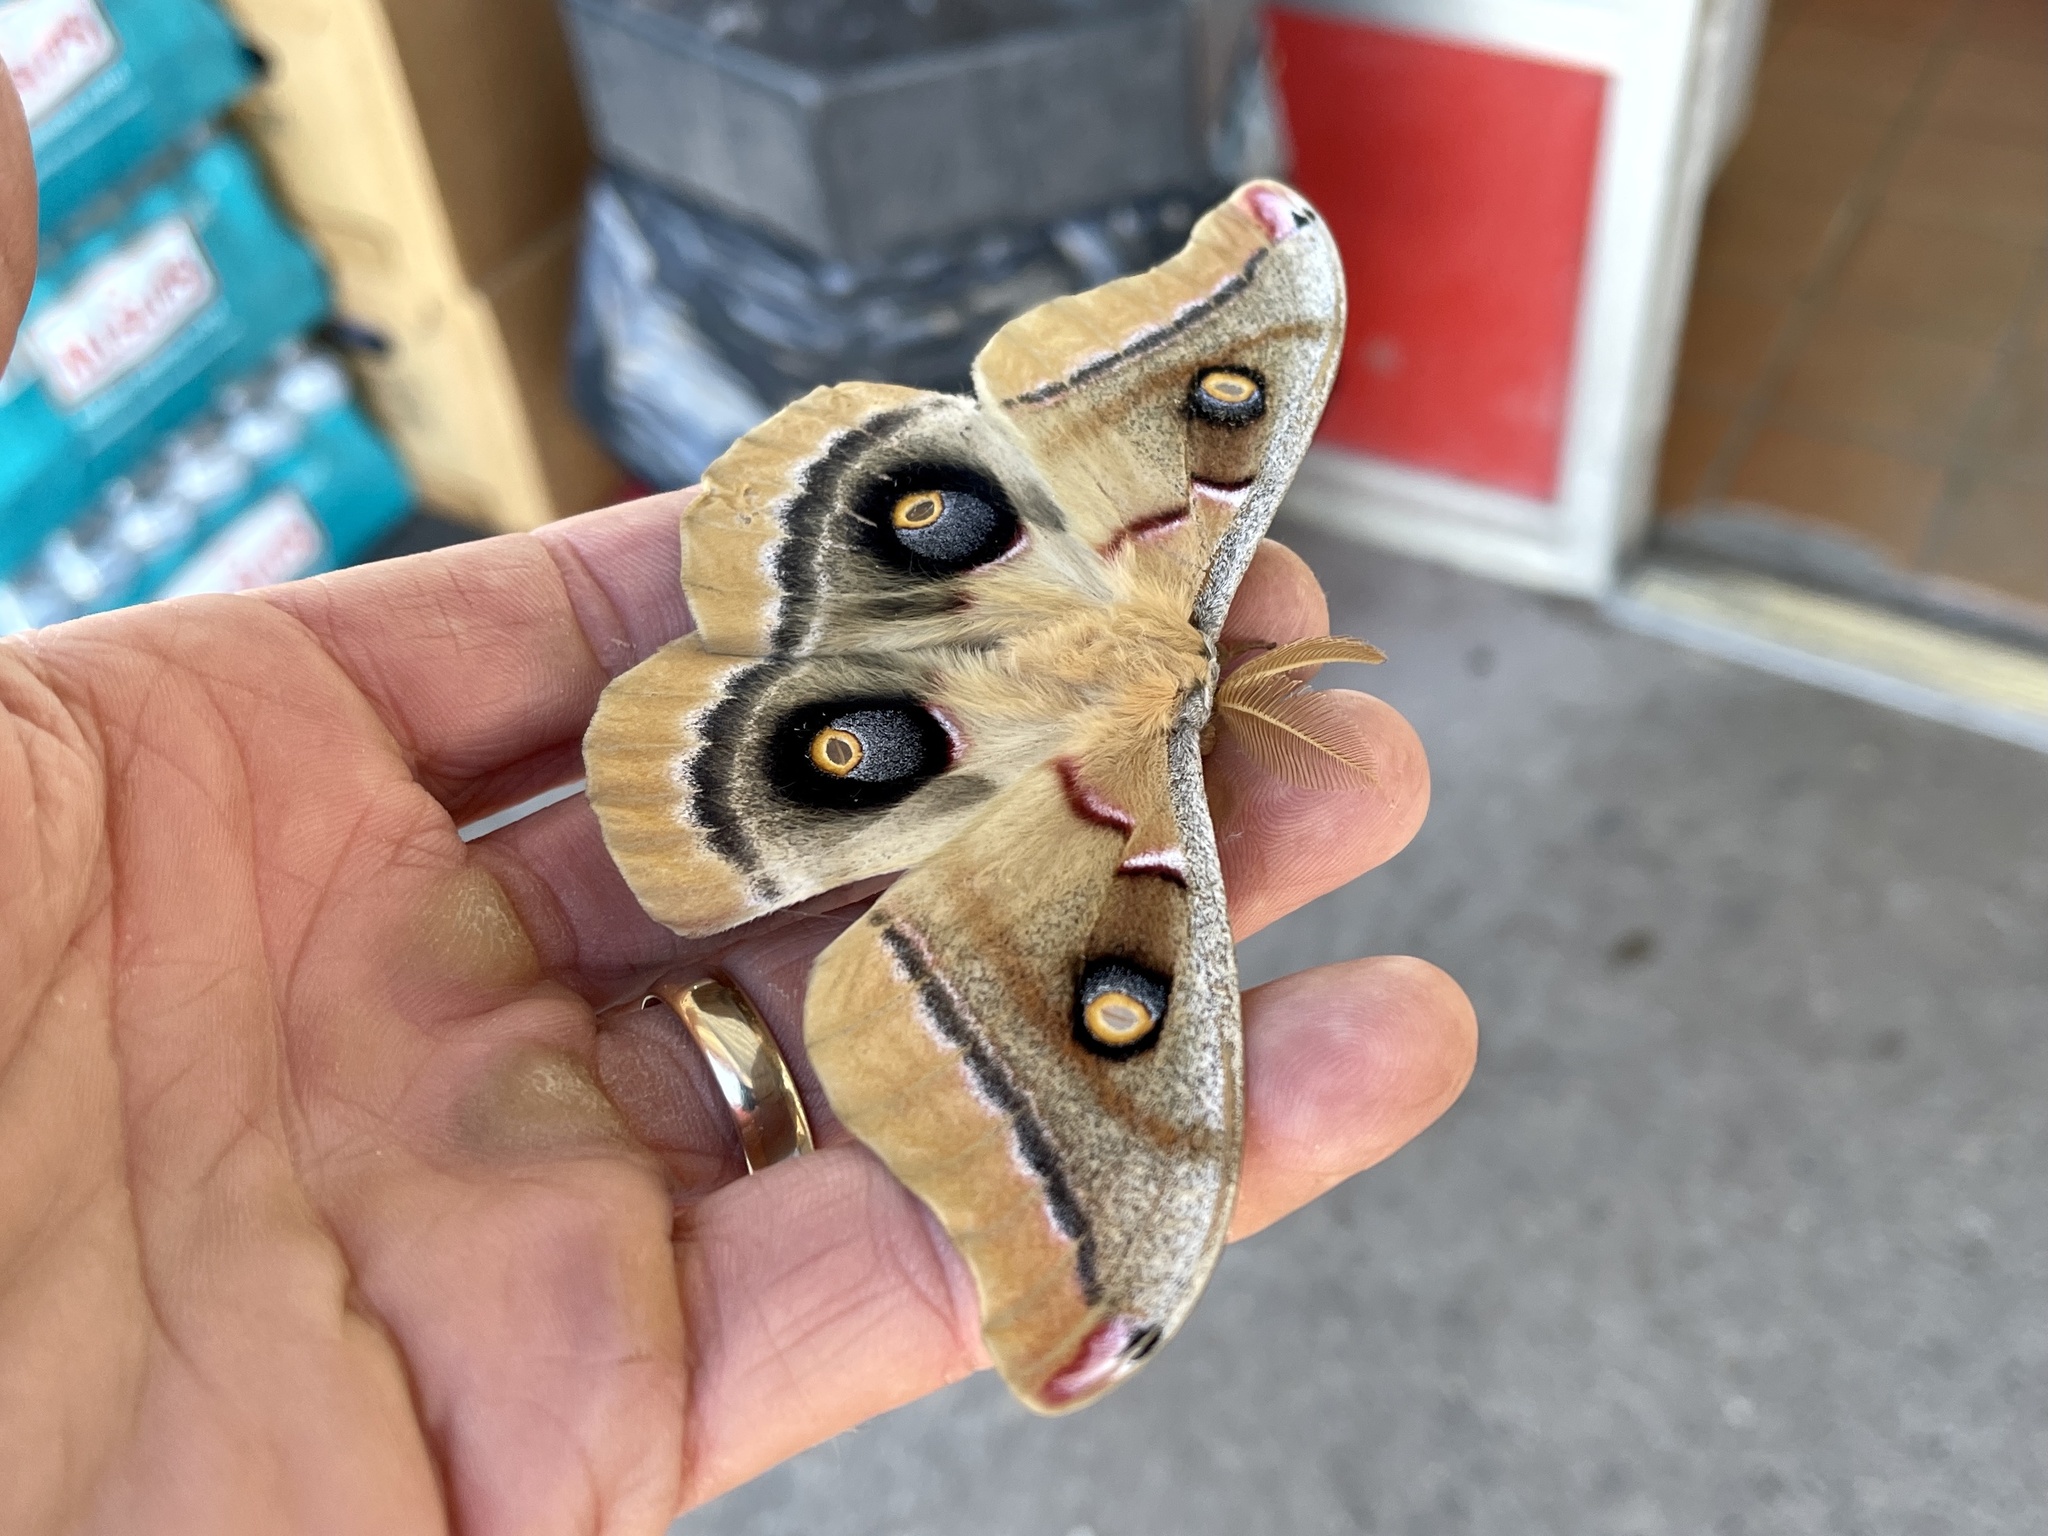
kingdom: Animalia
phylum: Arthropoda
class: Insecta
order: Lepidoptera
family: Saturniidae
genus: Antheraea
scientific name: Antheraea oculea
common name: Arizona polyphemus moth
